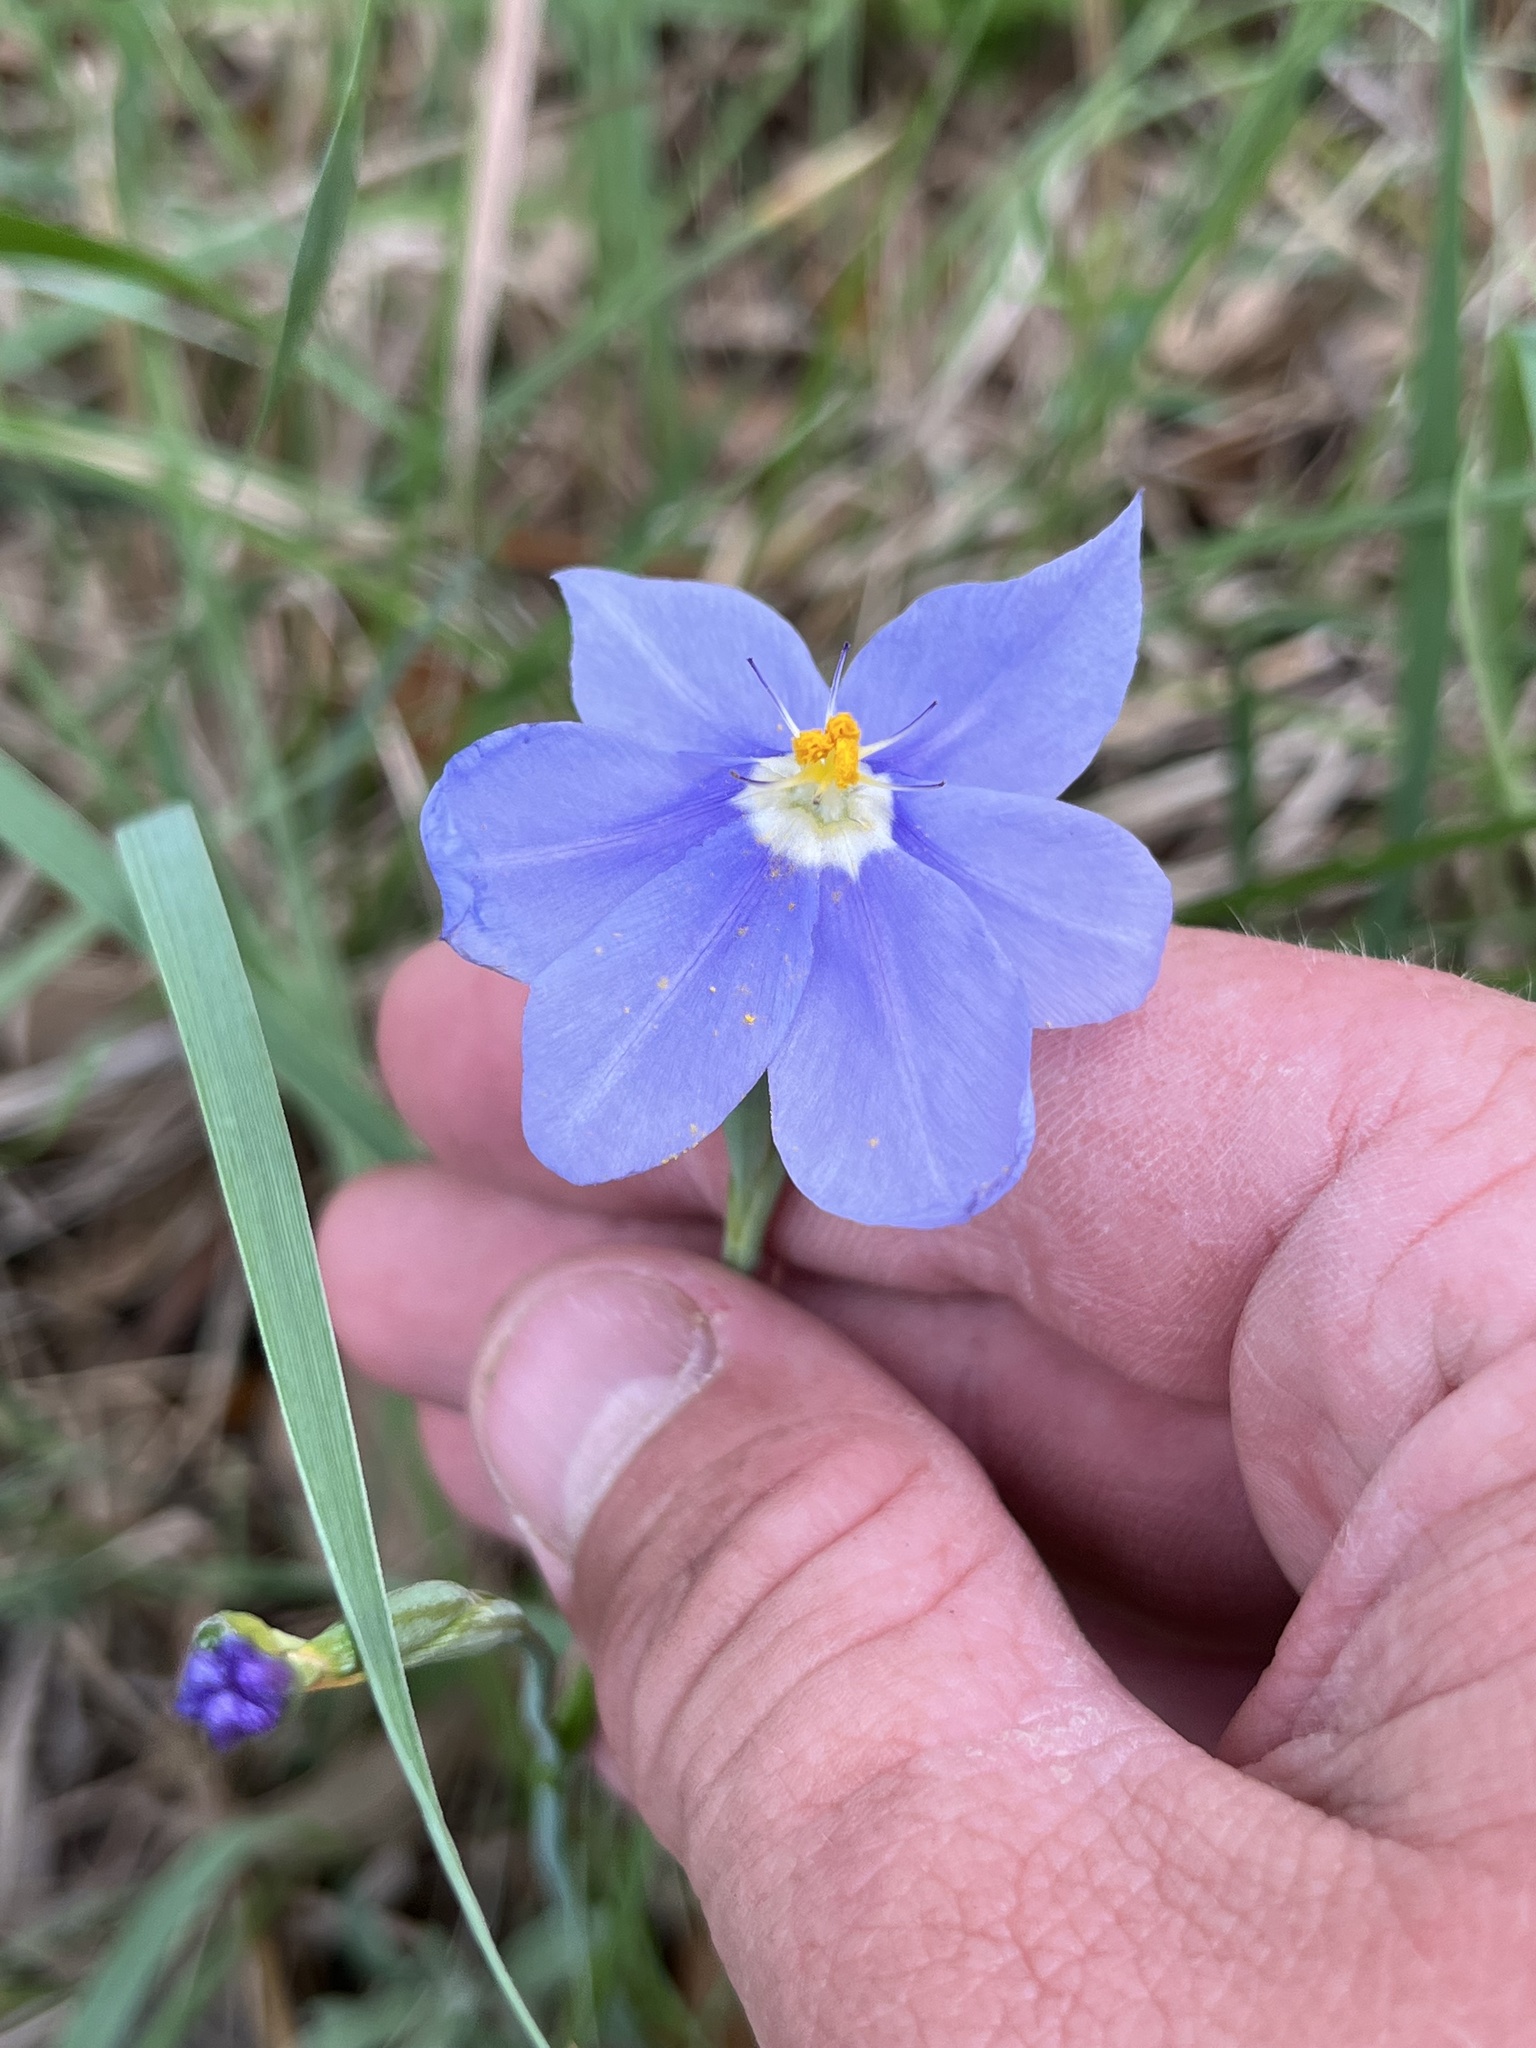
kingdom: Plantae
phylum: Tracheophyta
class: Liliopsida
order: Asparagales
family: Iridaceae
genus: Nemastylis
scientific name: Nemastylis geminiflora
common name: Prairie celestial
